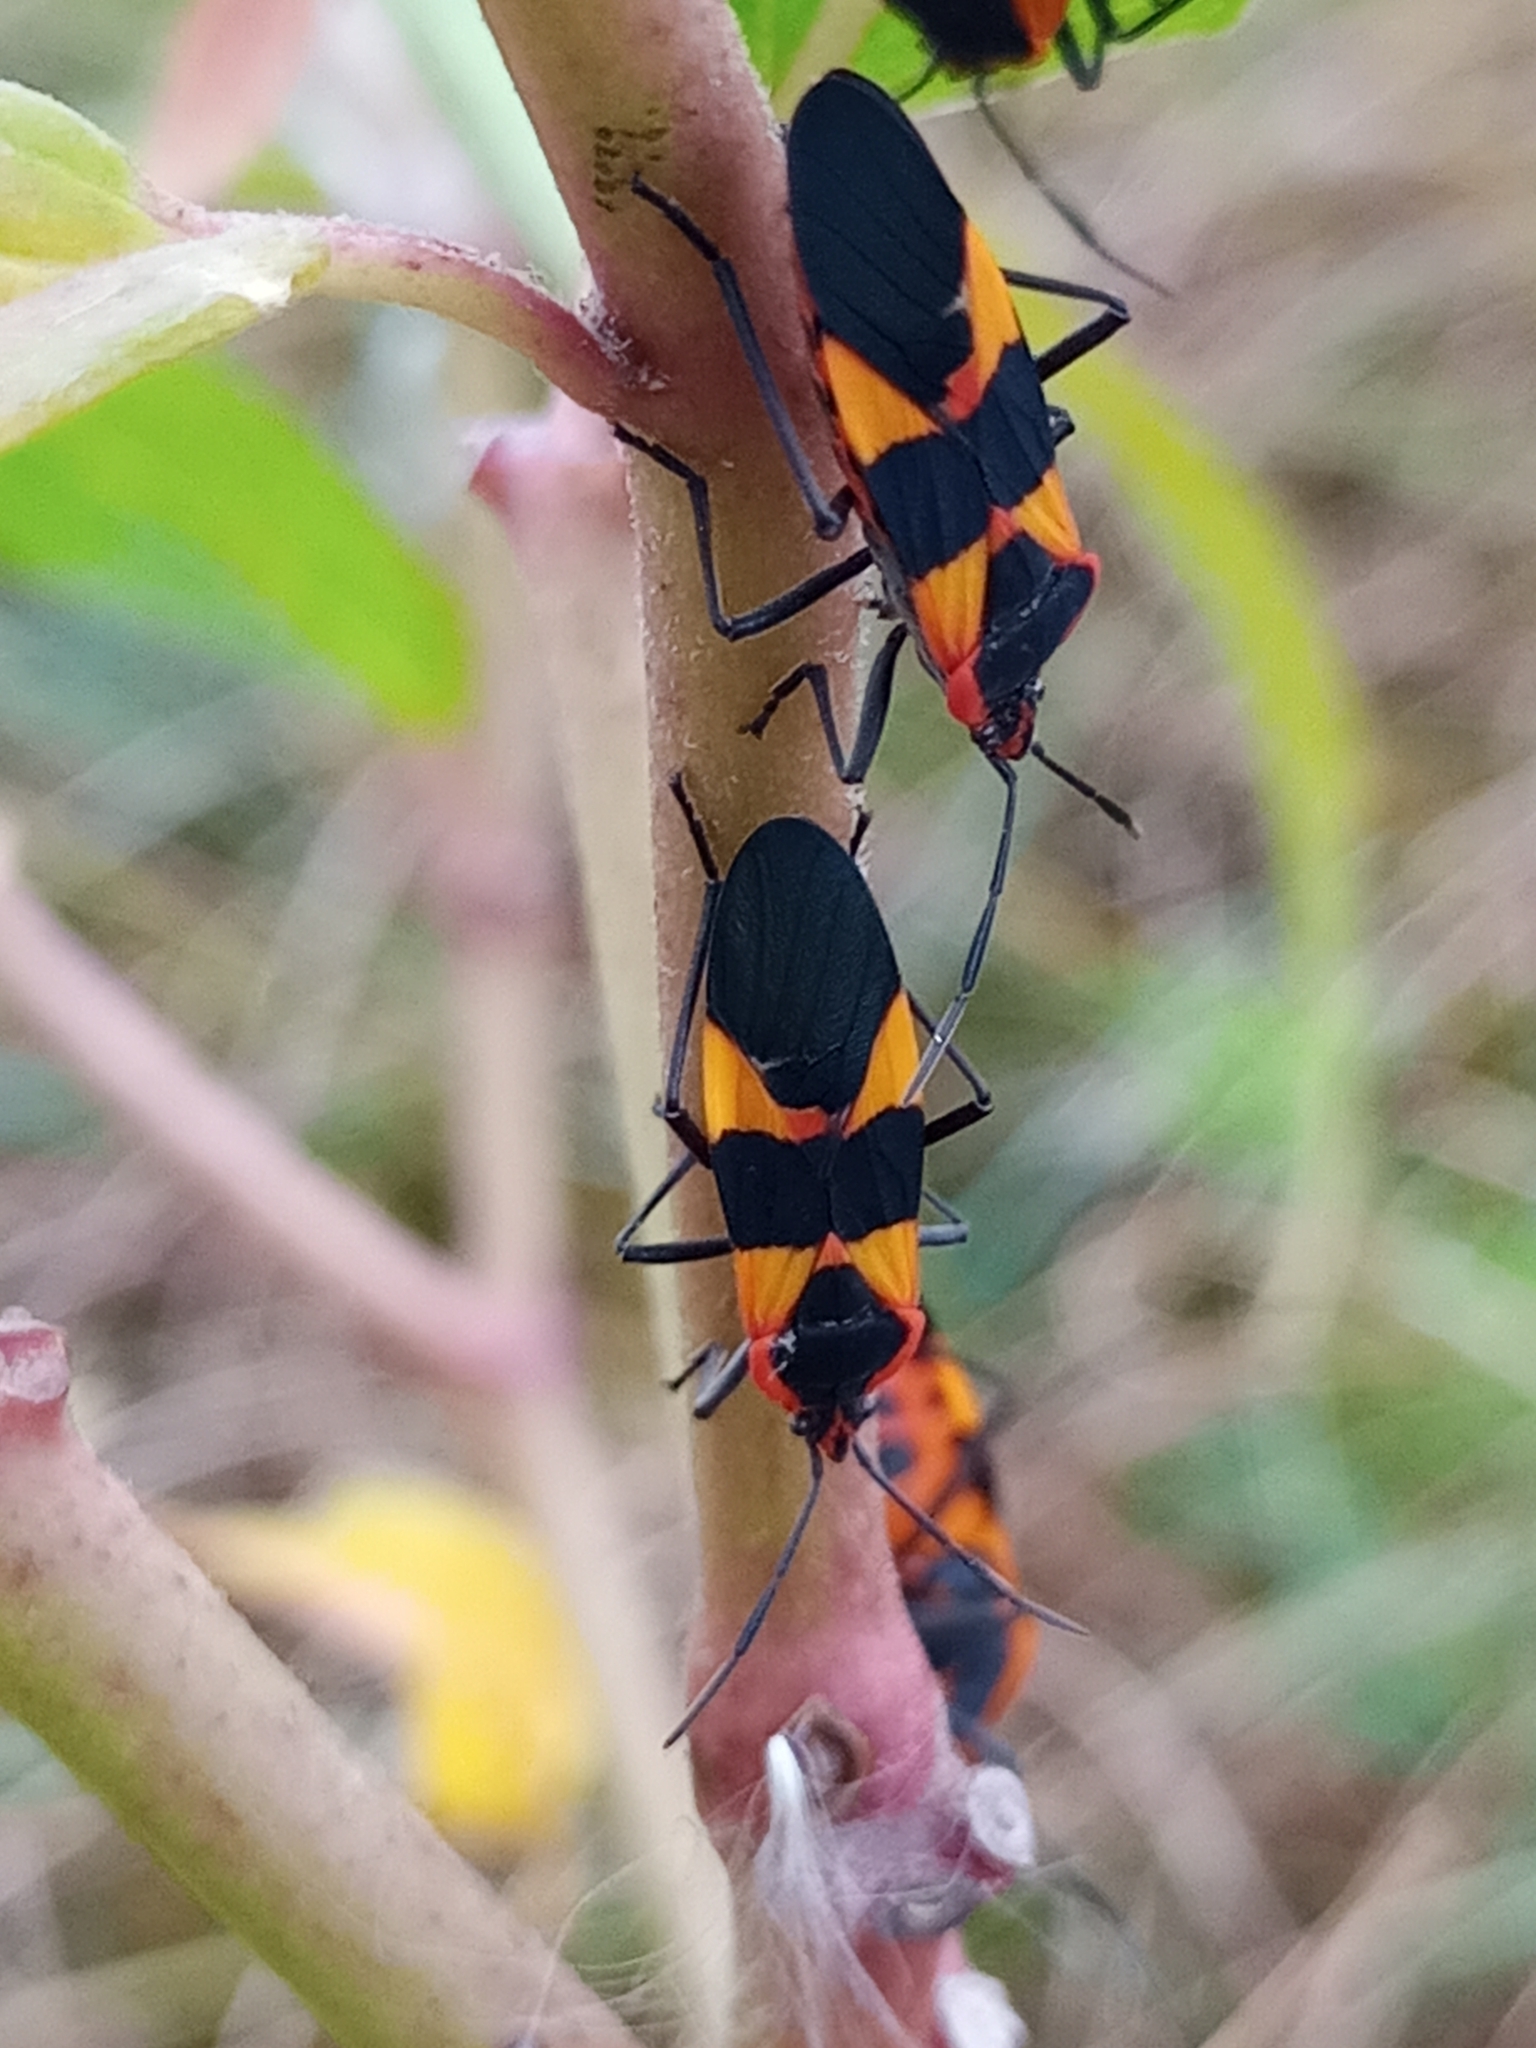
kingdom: Animalia
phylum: Arthropoda
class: Insecta
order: Hemiptera
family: Lygaeidae
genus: Oncopeltus
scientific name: Oncopeltus fasciatus
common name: Large milkweed bug
